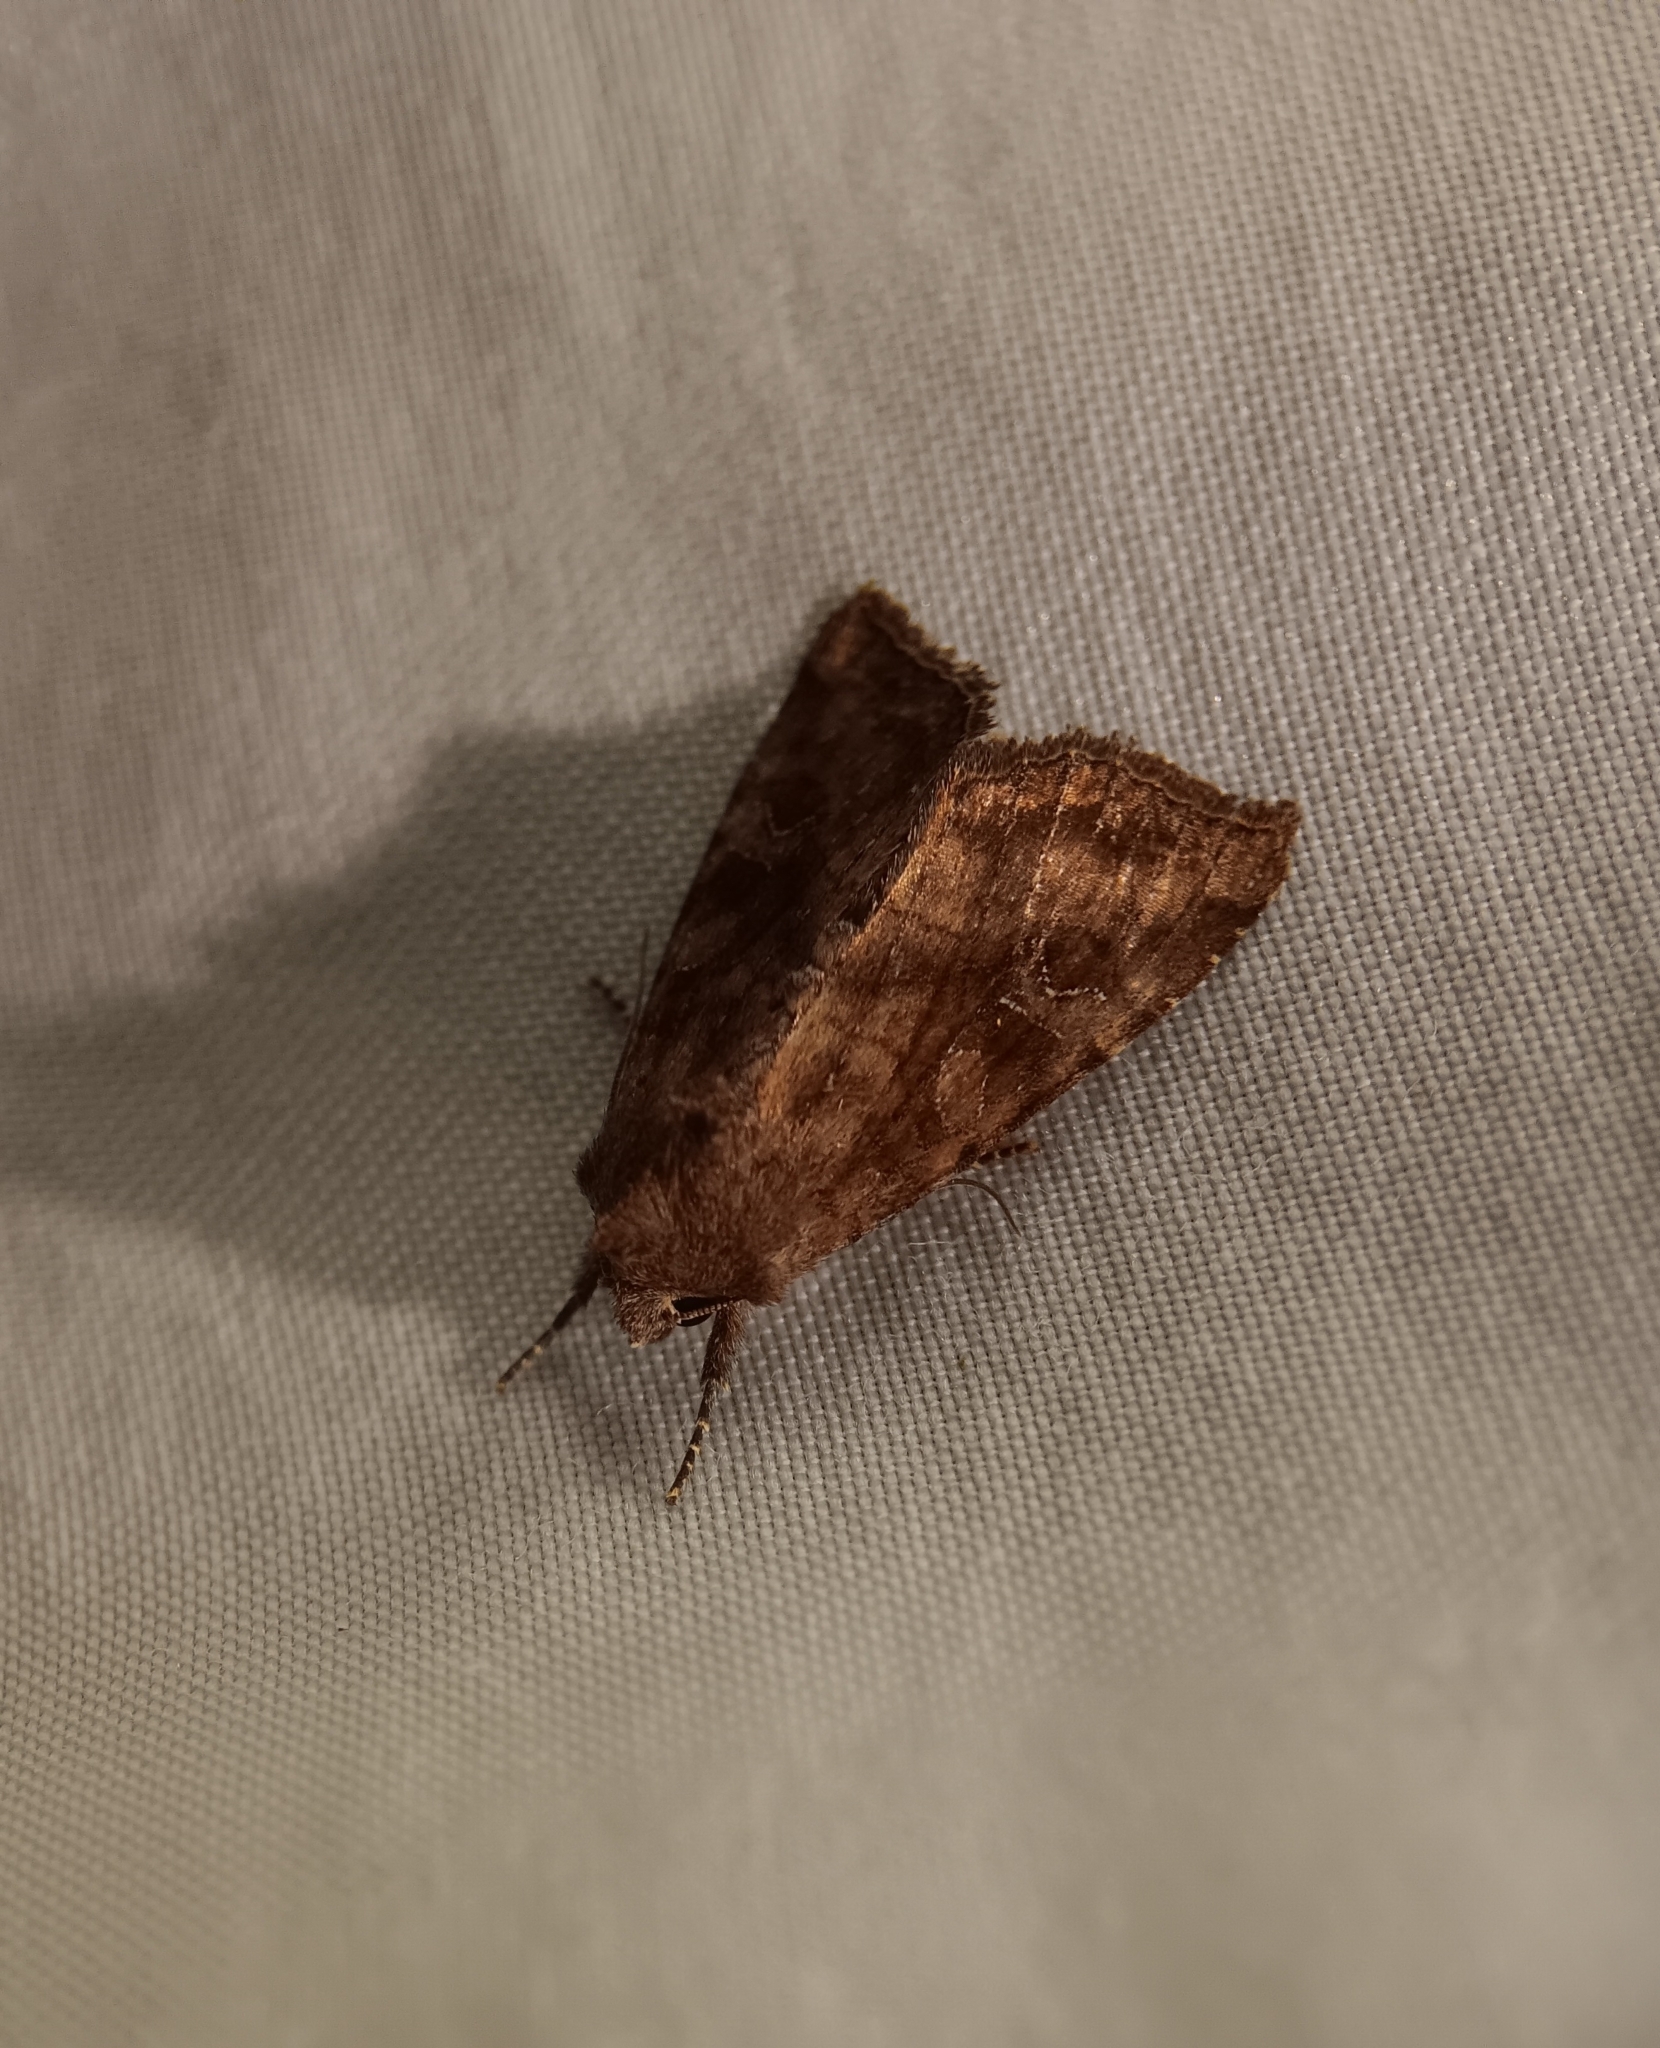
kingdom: Animalia
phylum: Arthropoda
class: Insecta
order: Lepidoptera
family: Noctuidae
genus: Loscopia
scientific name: Loscopia velata
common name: Veiled ear moth
